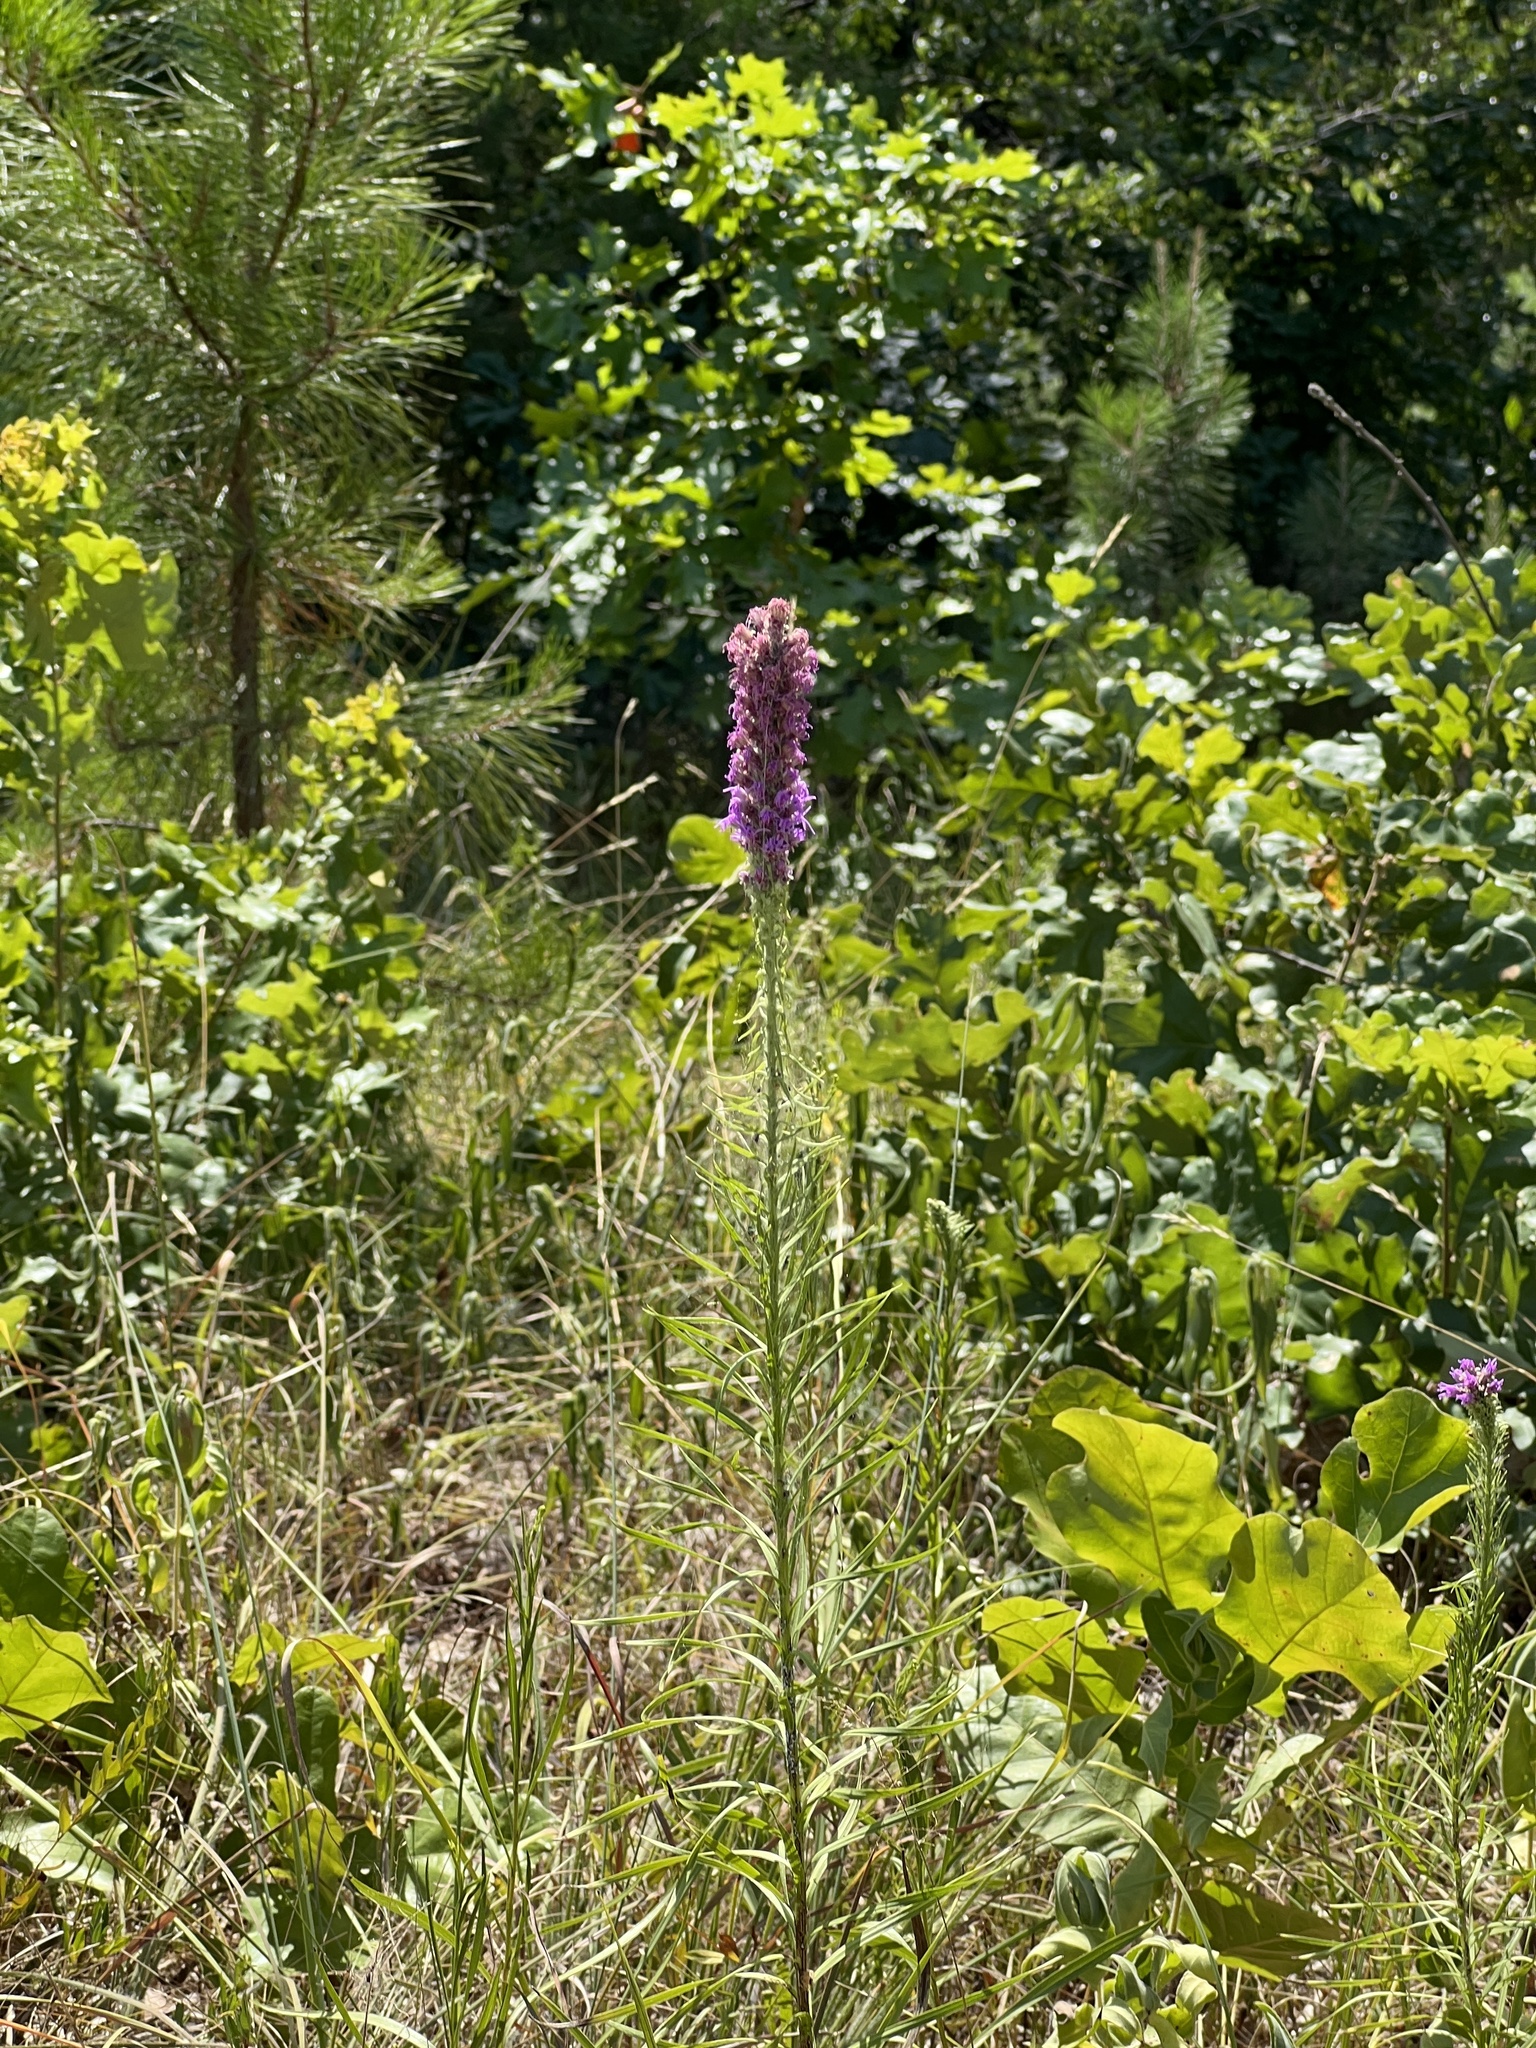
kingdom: Plantae
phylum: Tracheophyta
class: Magnoliopsida
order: Asterales
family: Asteraceae
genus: Liatris
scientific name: Liatris pycnostachya
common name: Cattail gayfeather
